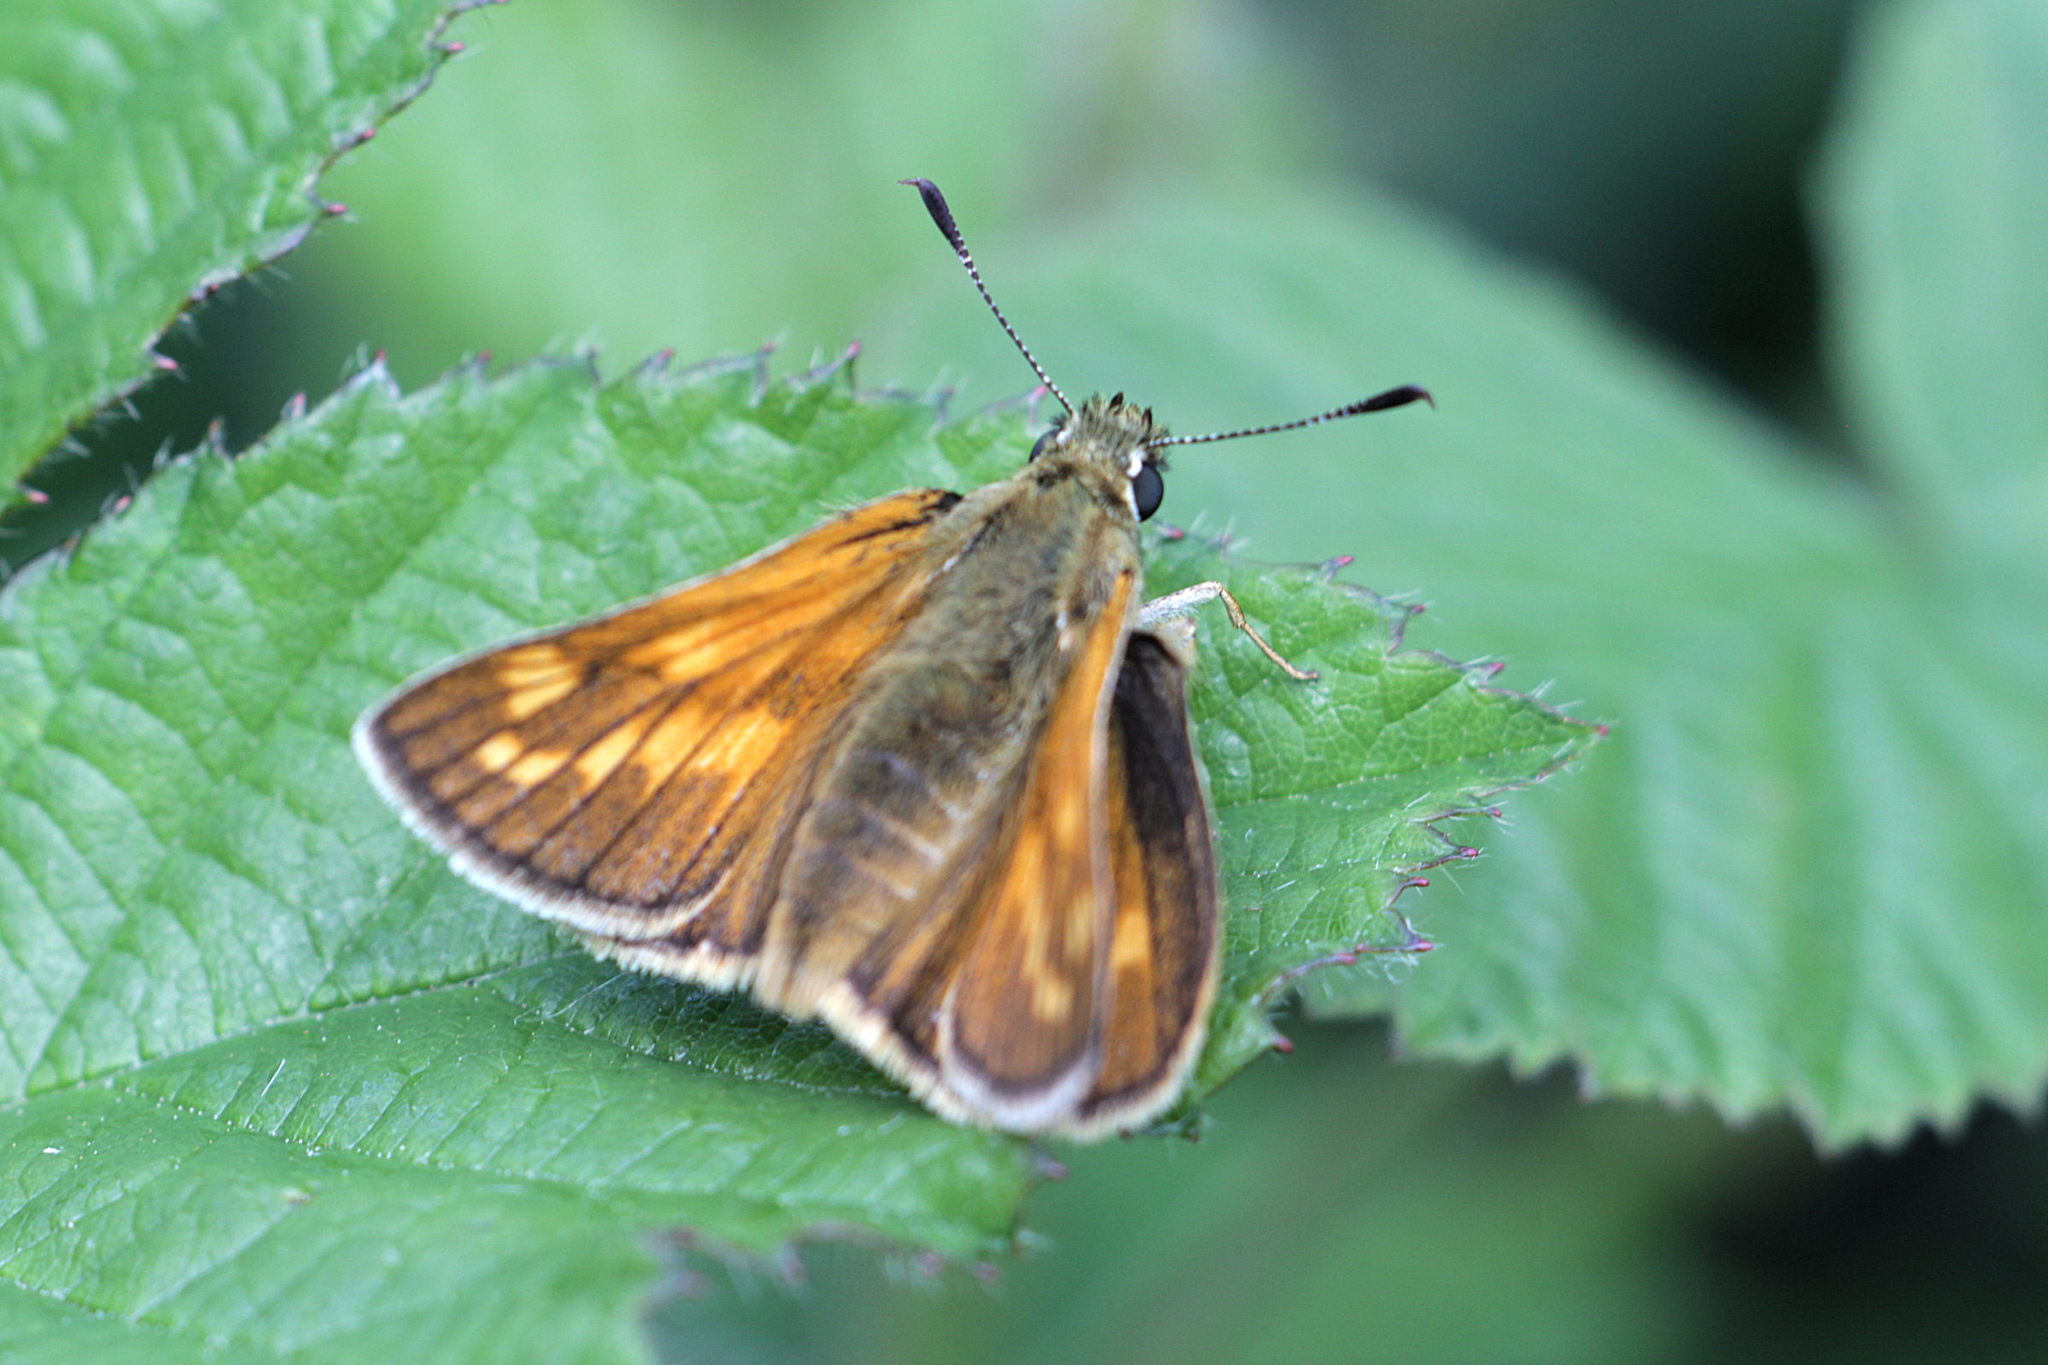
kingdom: Animalia
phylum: Arthropoda
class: Insecta
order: Lepidoptera
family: Hesperiidae
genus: Ochlodes
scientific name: Ochlodes venata
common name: Large skipper
